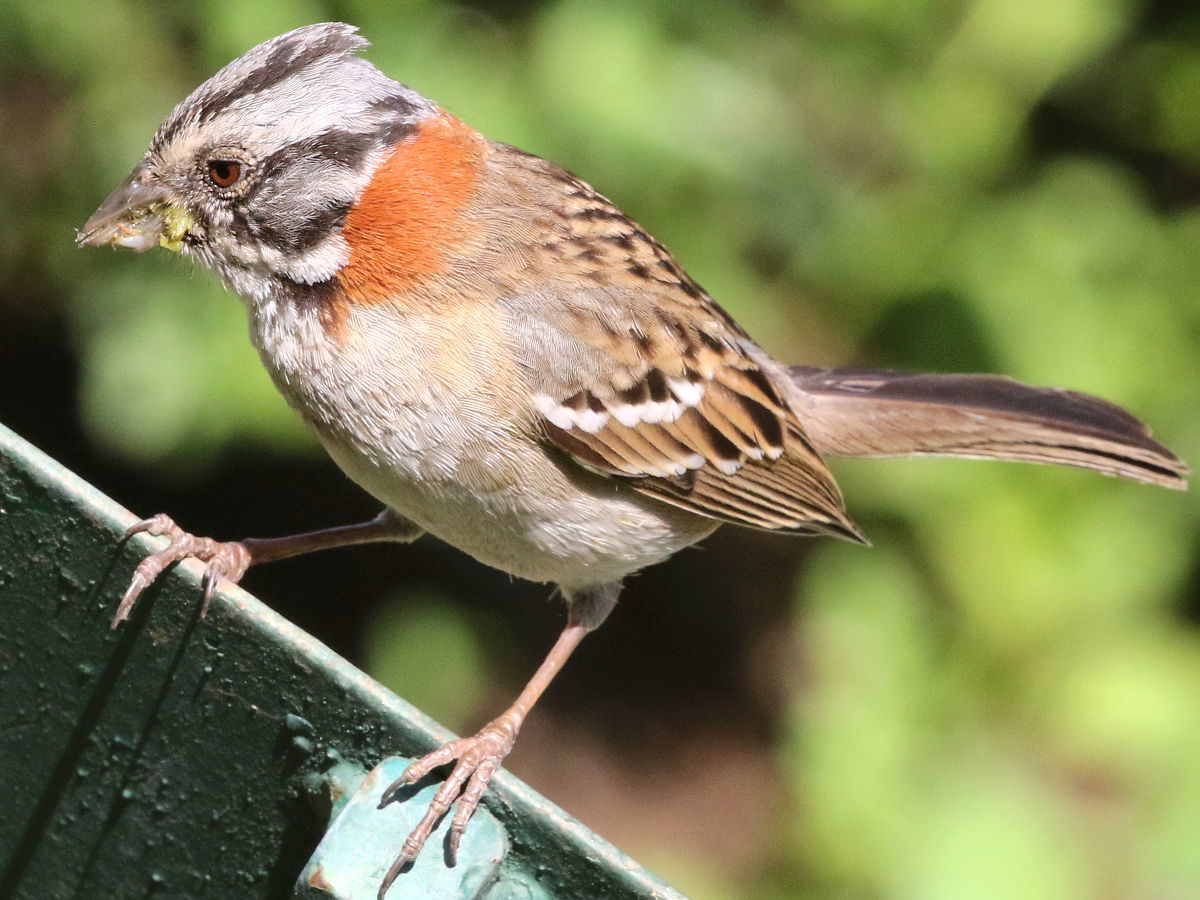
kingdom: Animalia
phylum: Chordata
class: Aves
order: Passeriformes
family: Passerellidae
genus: Zonotrichia
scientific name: Zonotrichia capensis
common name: Rufous-collared sparrow
